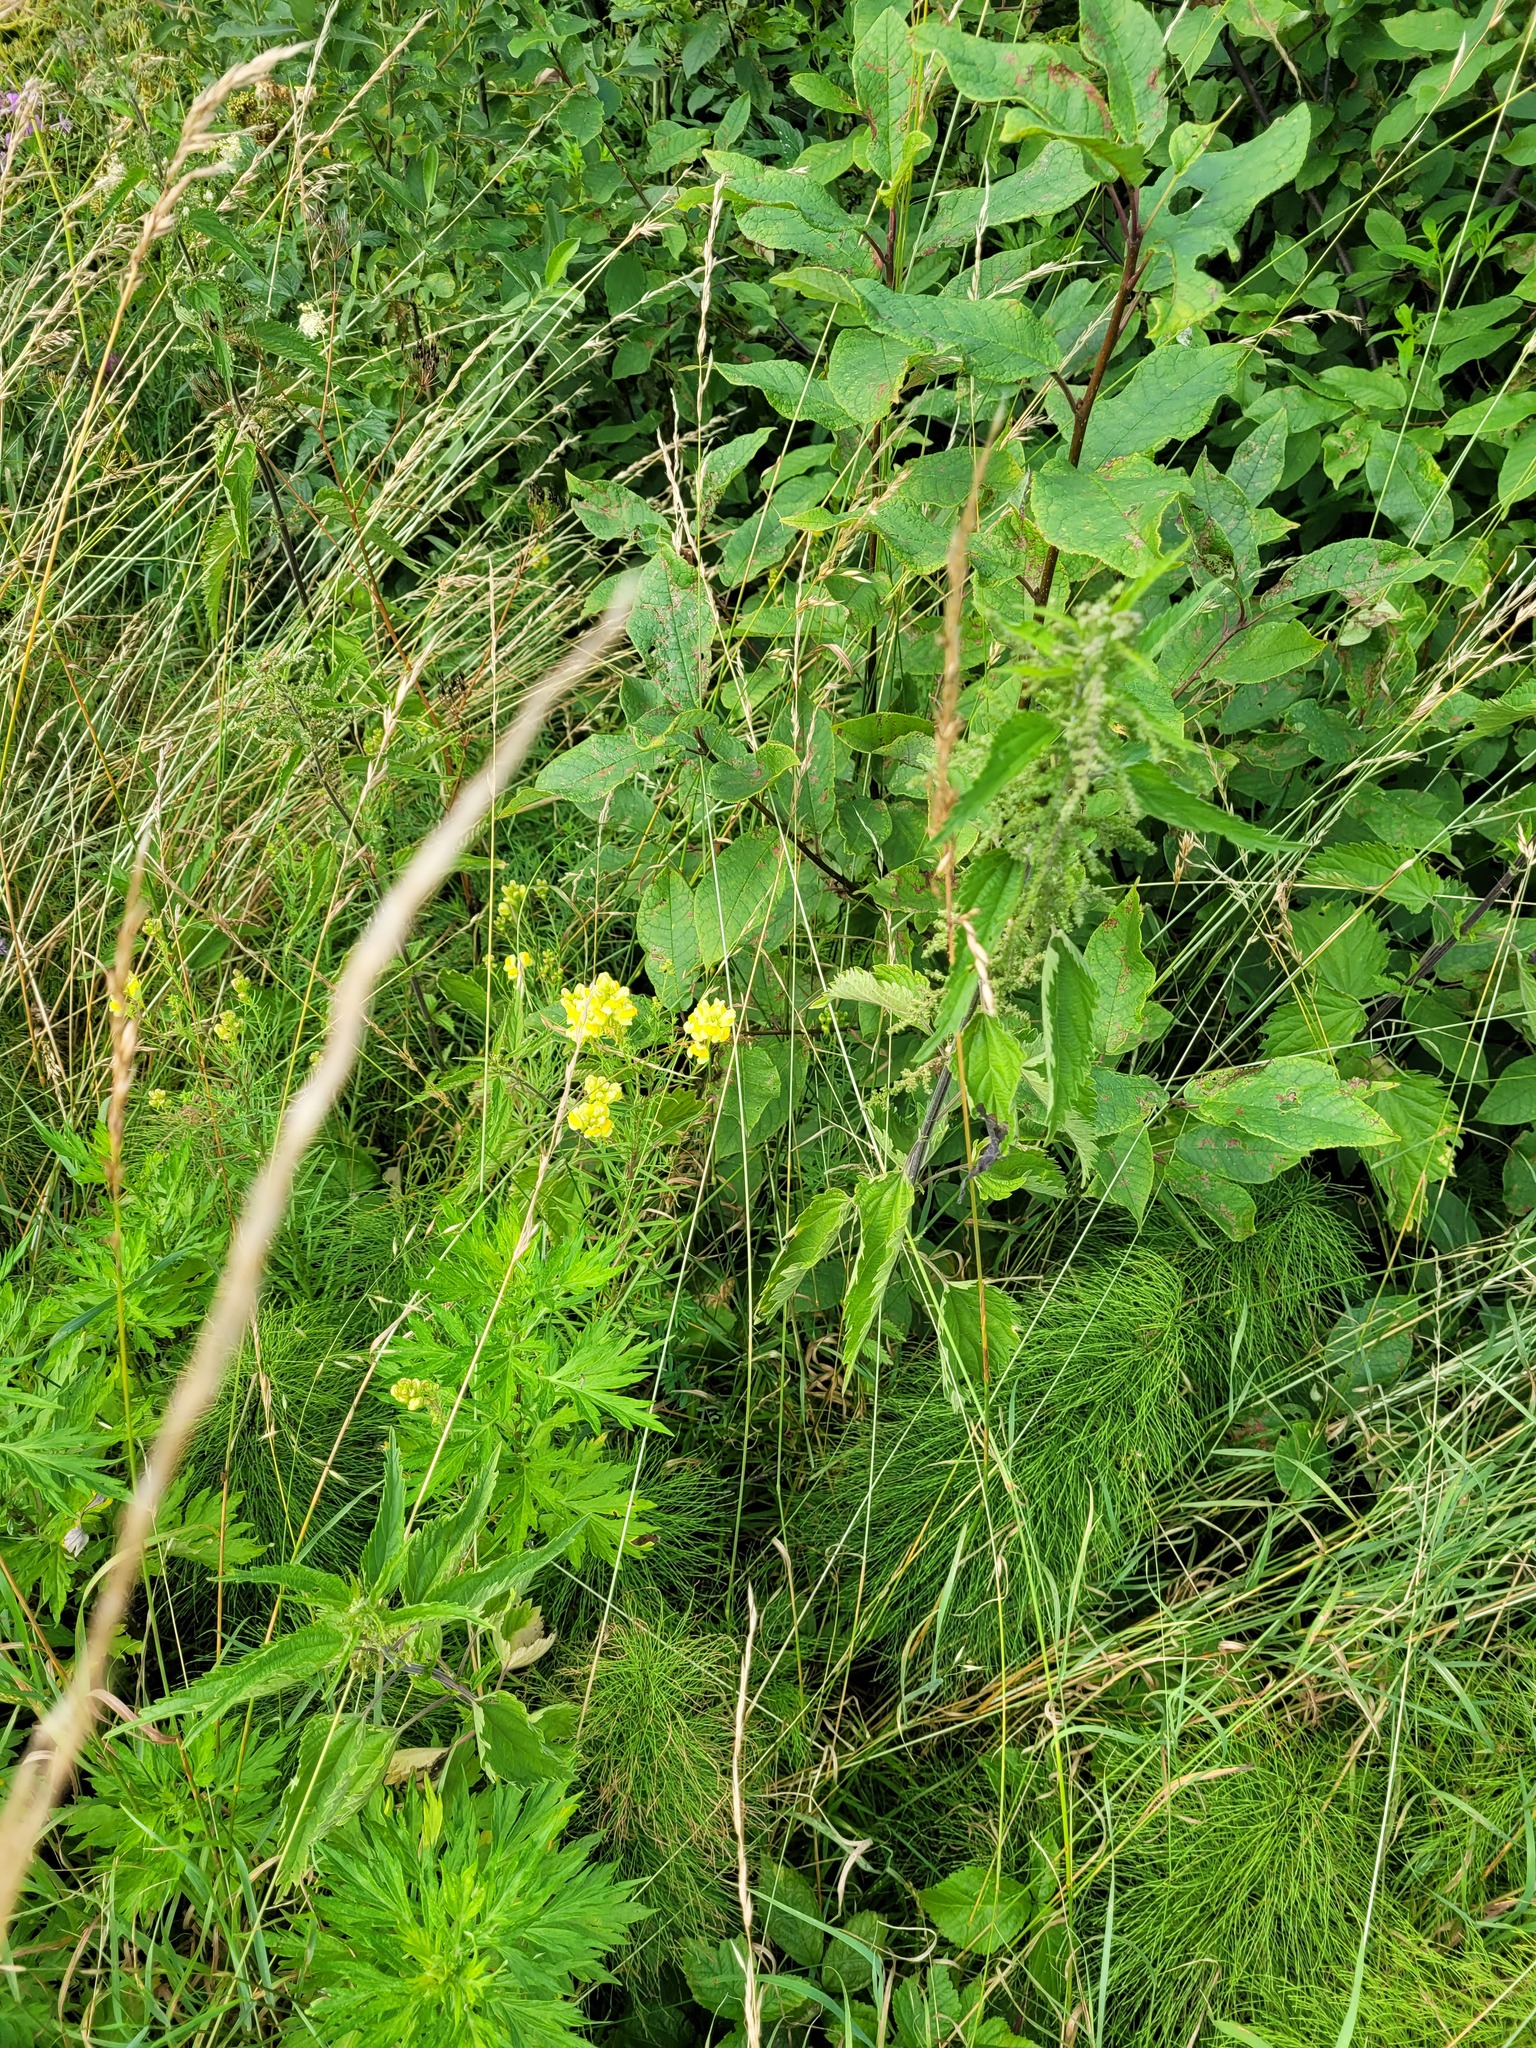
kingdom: Plantae
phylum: Tracheophyta
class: Magnoliopsida
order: Rosales
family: Rosaceae
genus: Prunus
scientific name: Prunus padus
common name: Bird cherry
